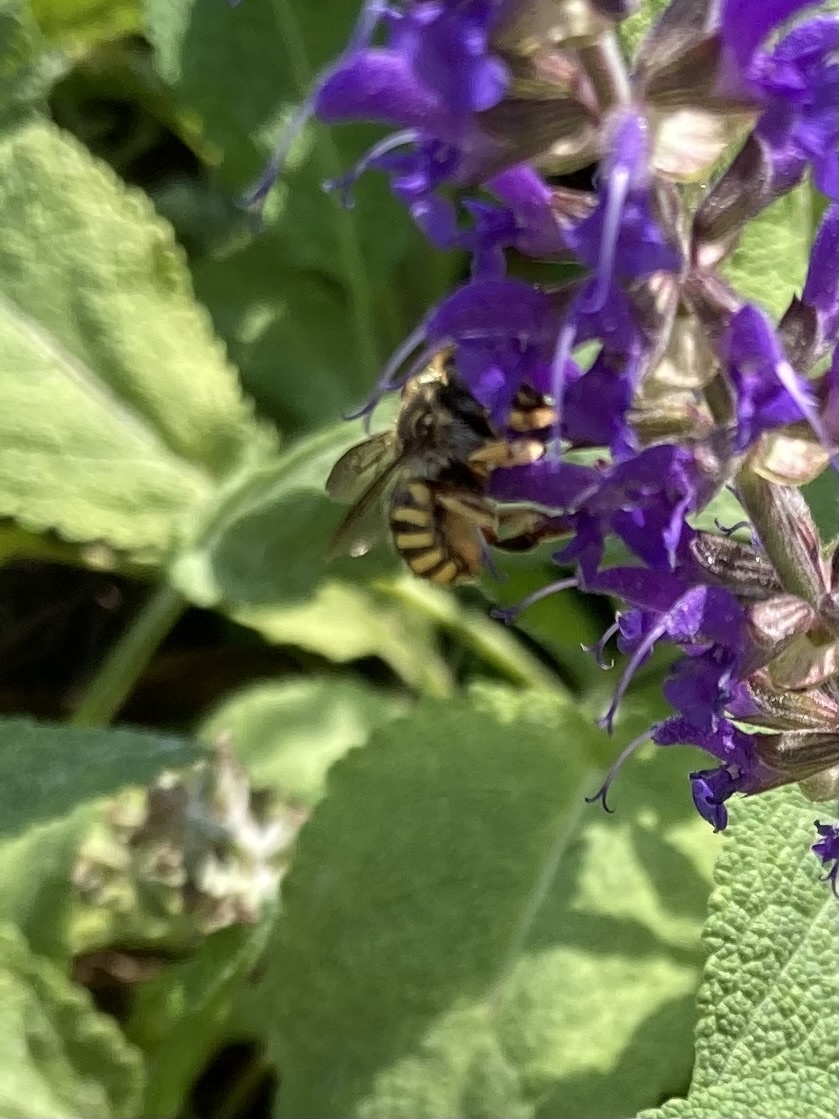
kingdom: Animalia
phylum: Arthropoda
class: Insecta
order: Hymenoptera
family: Megachilidae
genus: Anthidium
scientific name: Anthidium manicatum
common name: Wool carder bee
